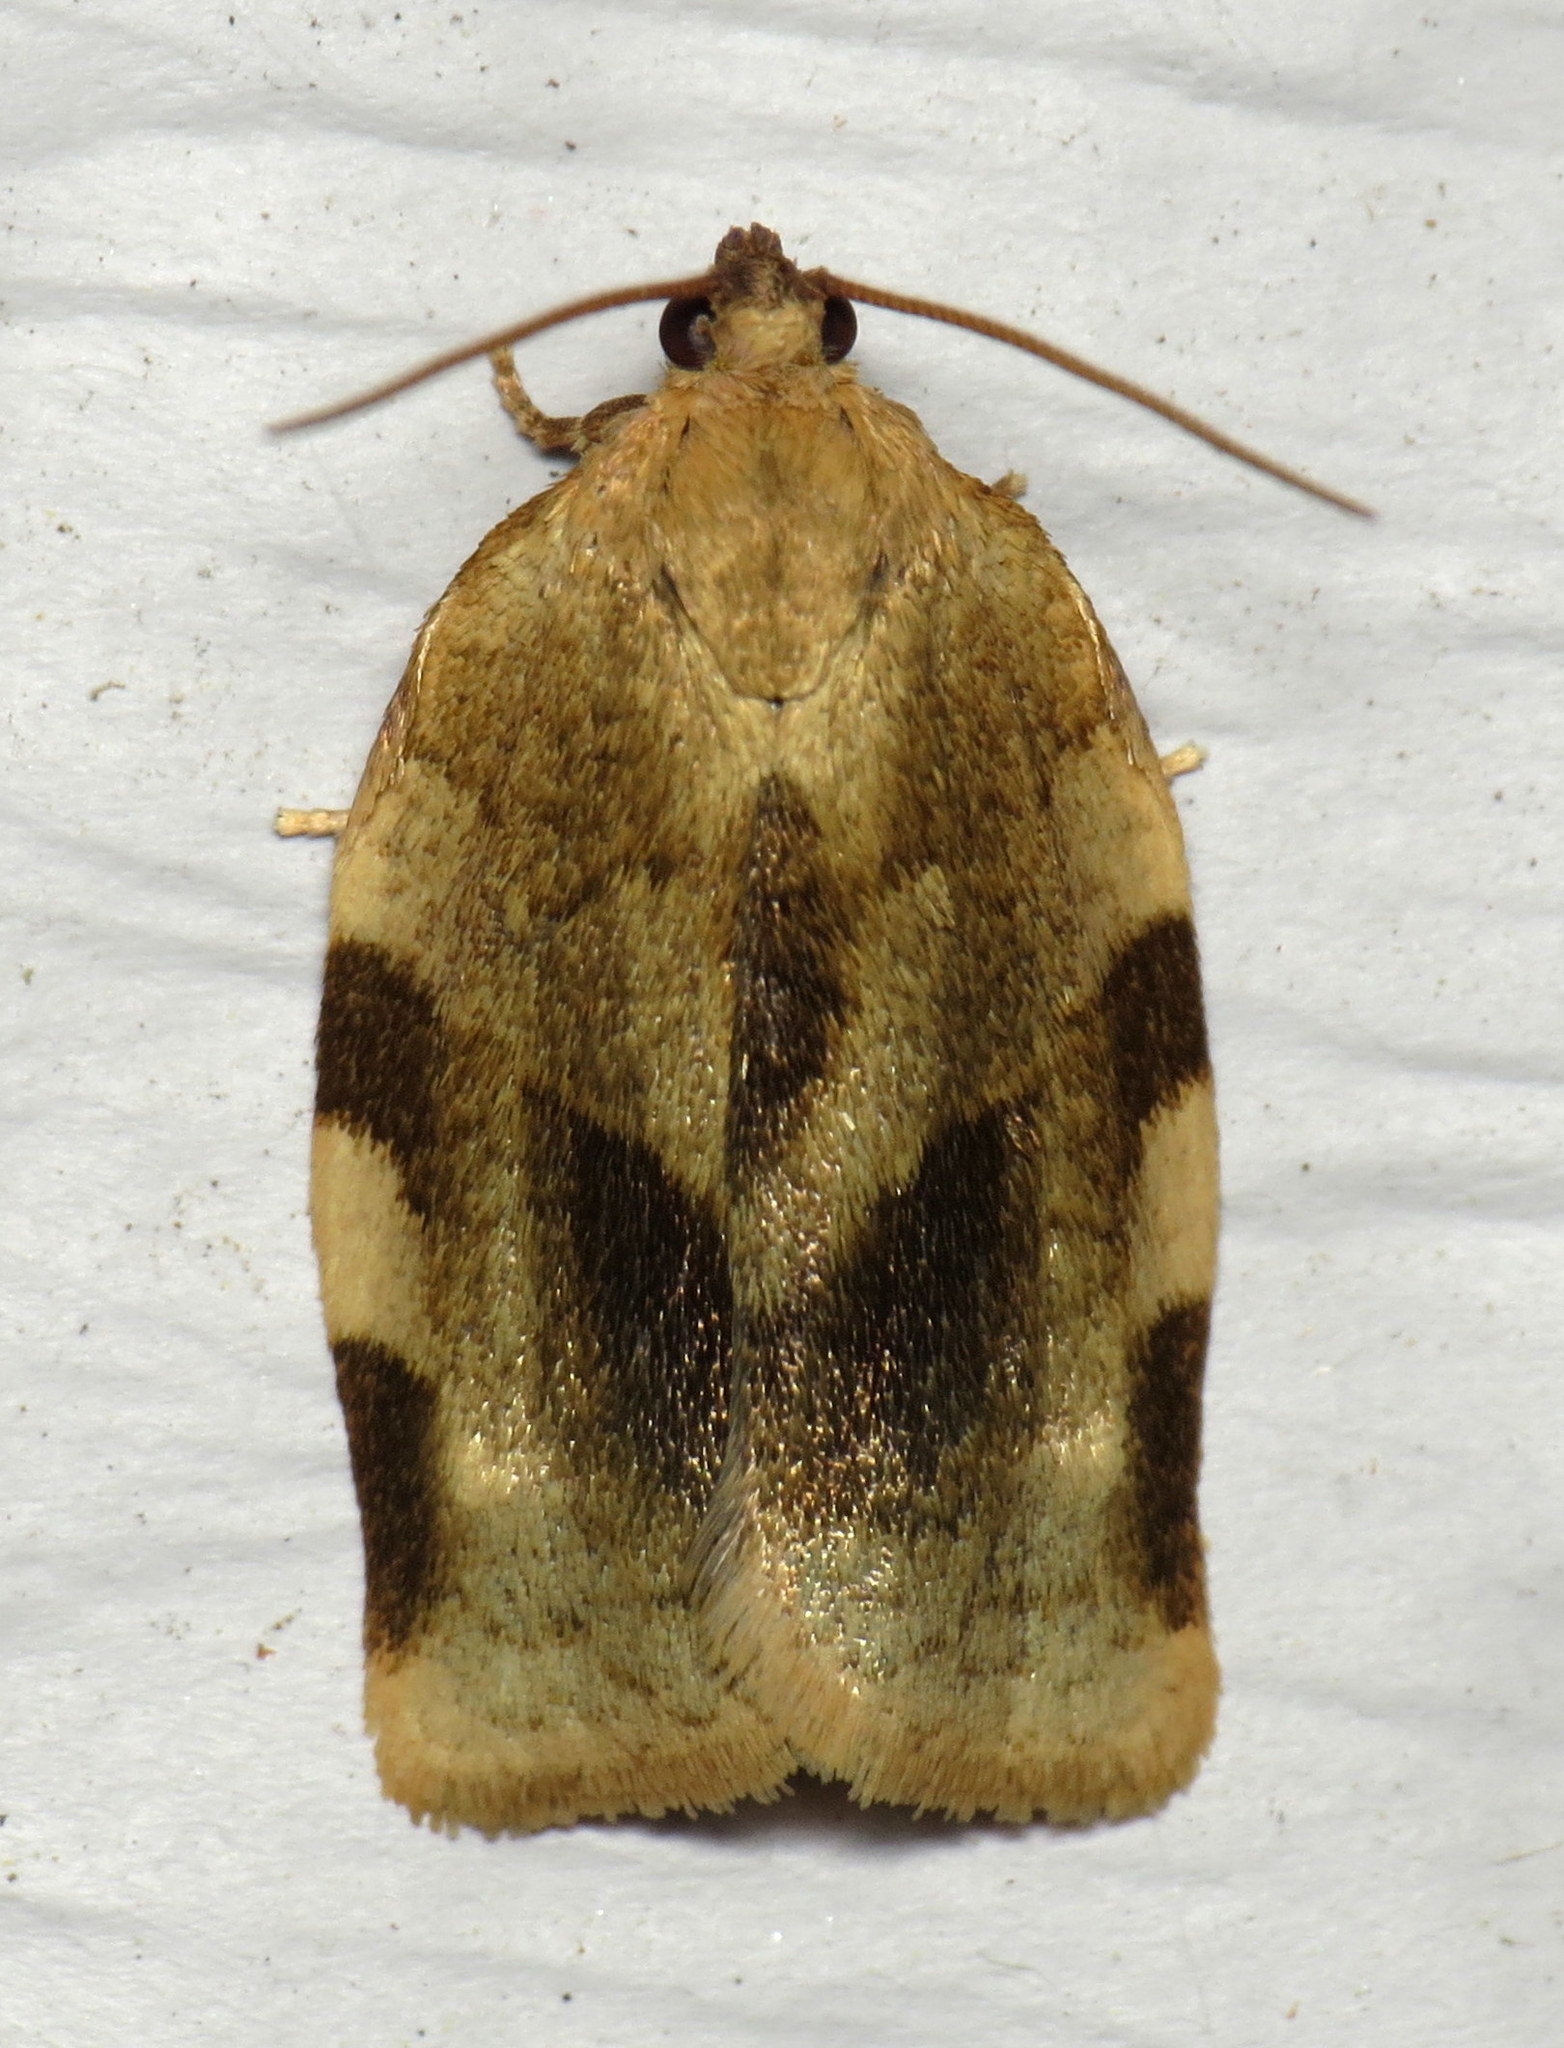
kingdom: Animalia
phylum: Arthropoda
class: Insecta
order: Lepidoptera
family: Tortricidae
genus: Choristoneura
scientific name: Choristoneura fractivittana
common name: Broken-banded leafroller moth
